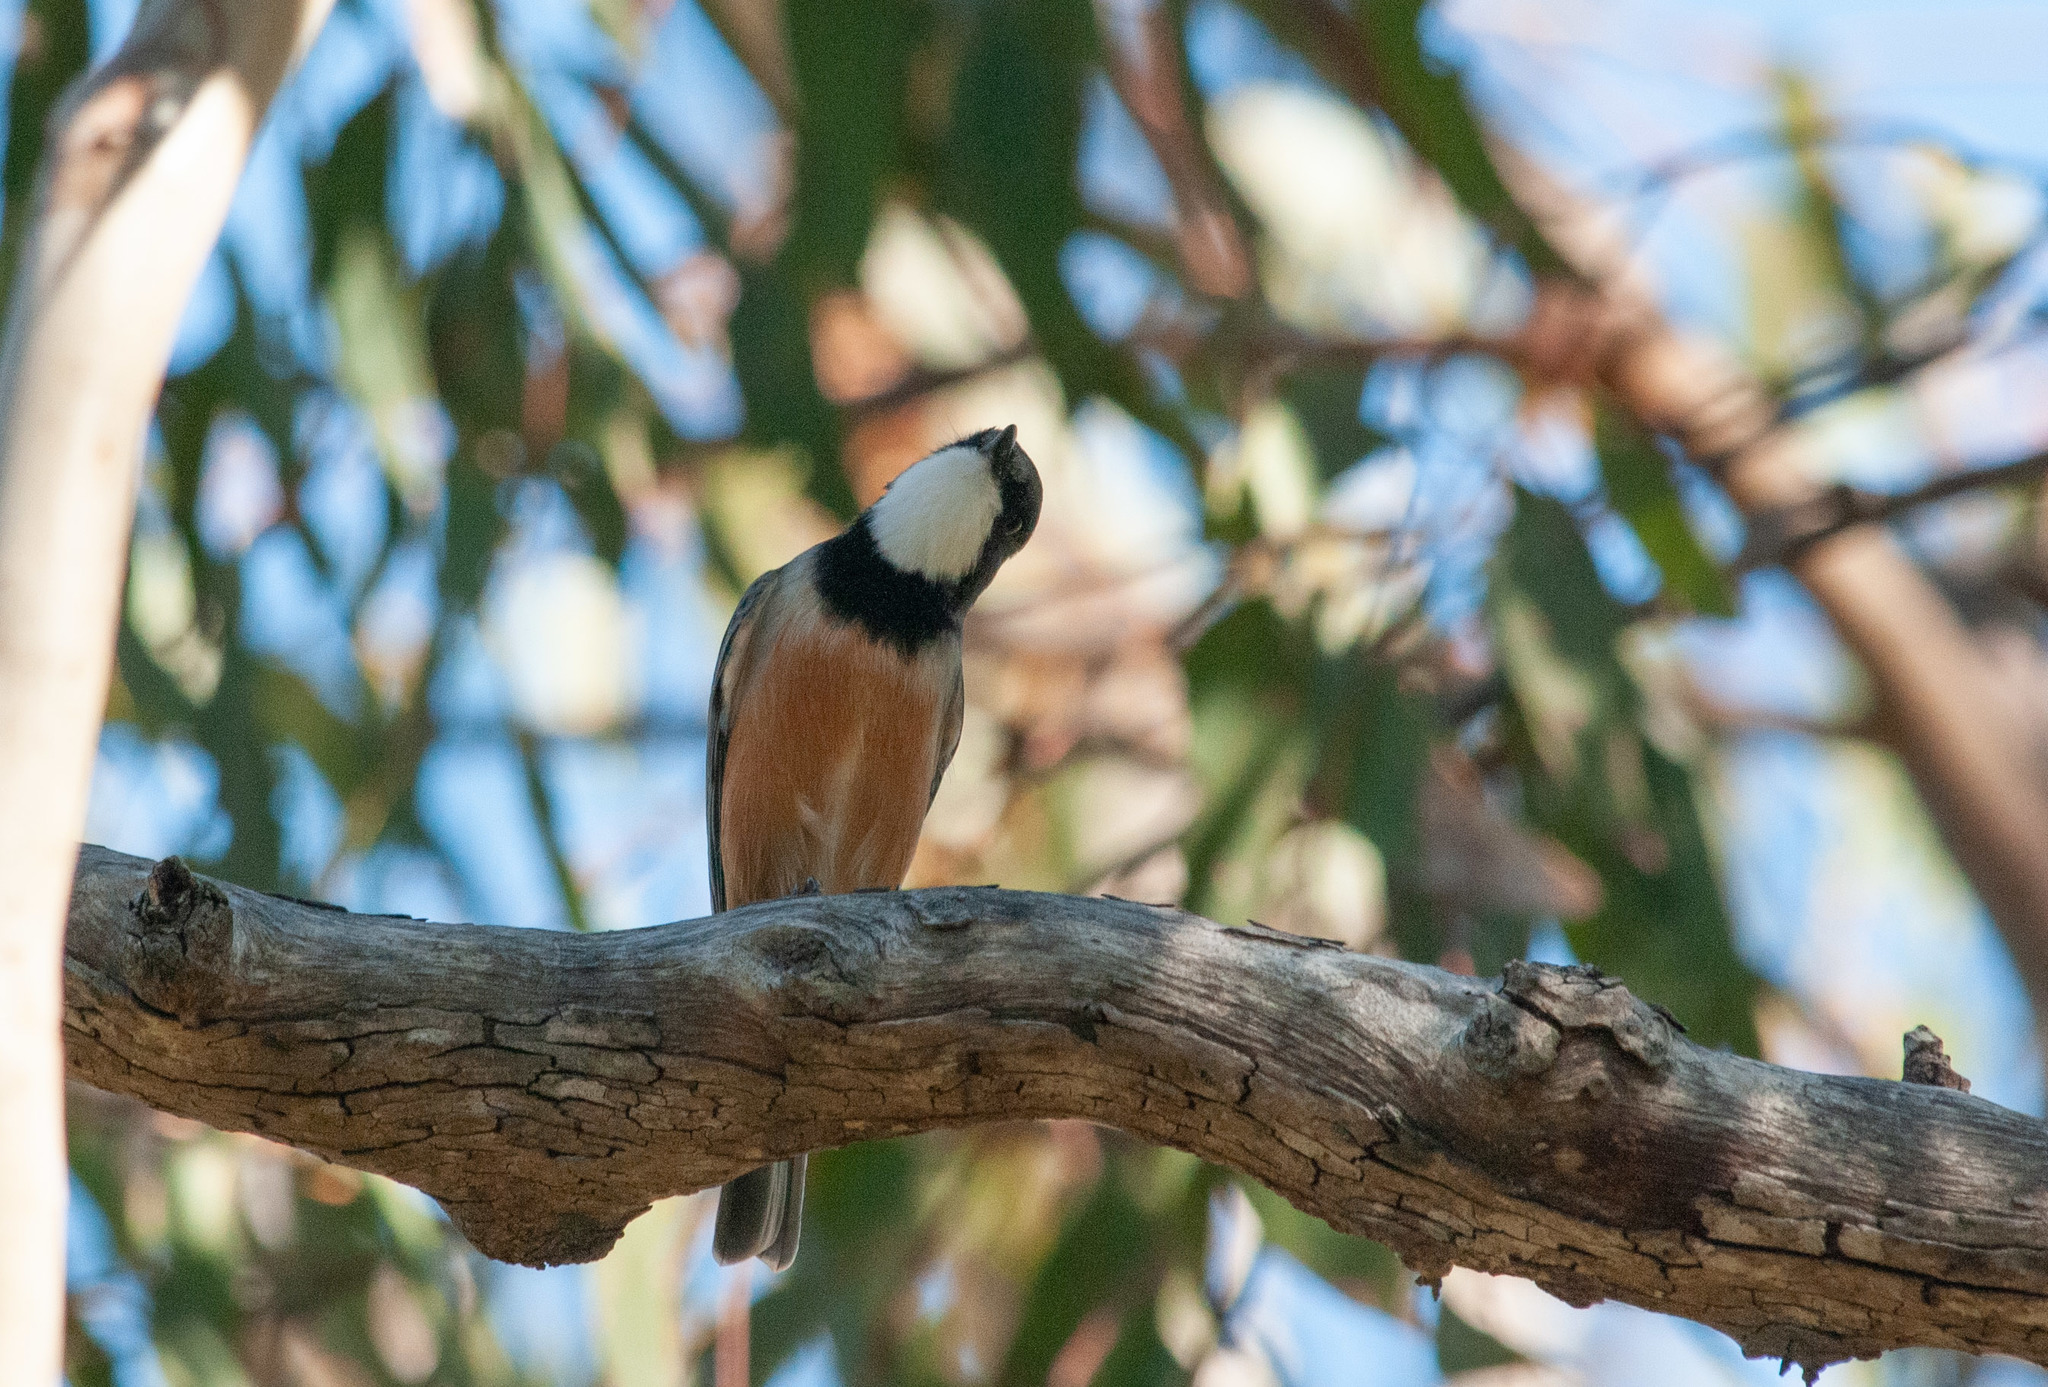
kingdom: Animalia
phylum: Chordata
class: Aves
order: Passeriformes
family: Pachycephalidae
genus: Pachycephala
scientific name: Pachycephala rufiventris
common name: Rufous whistler
